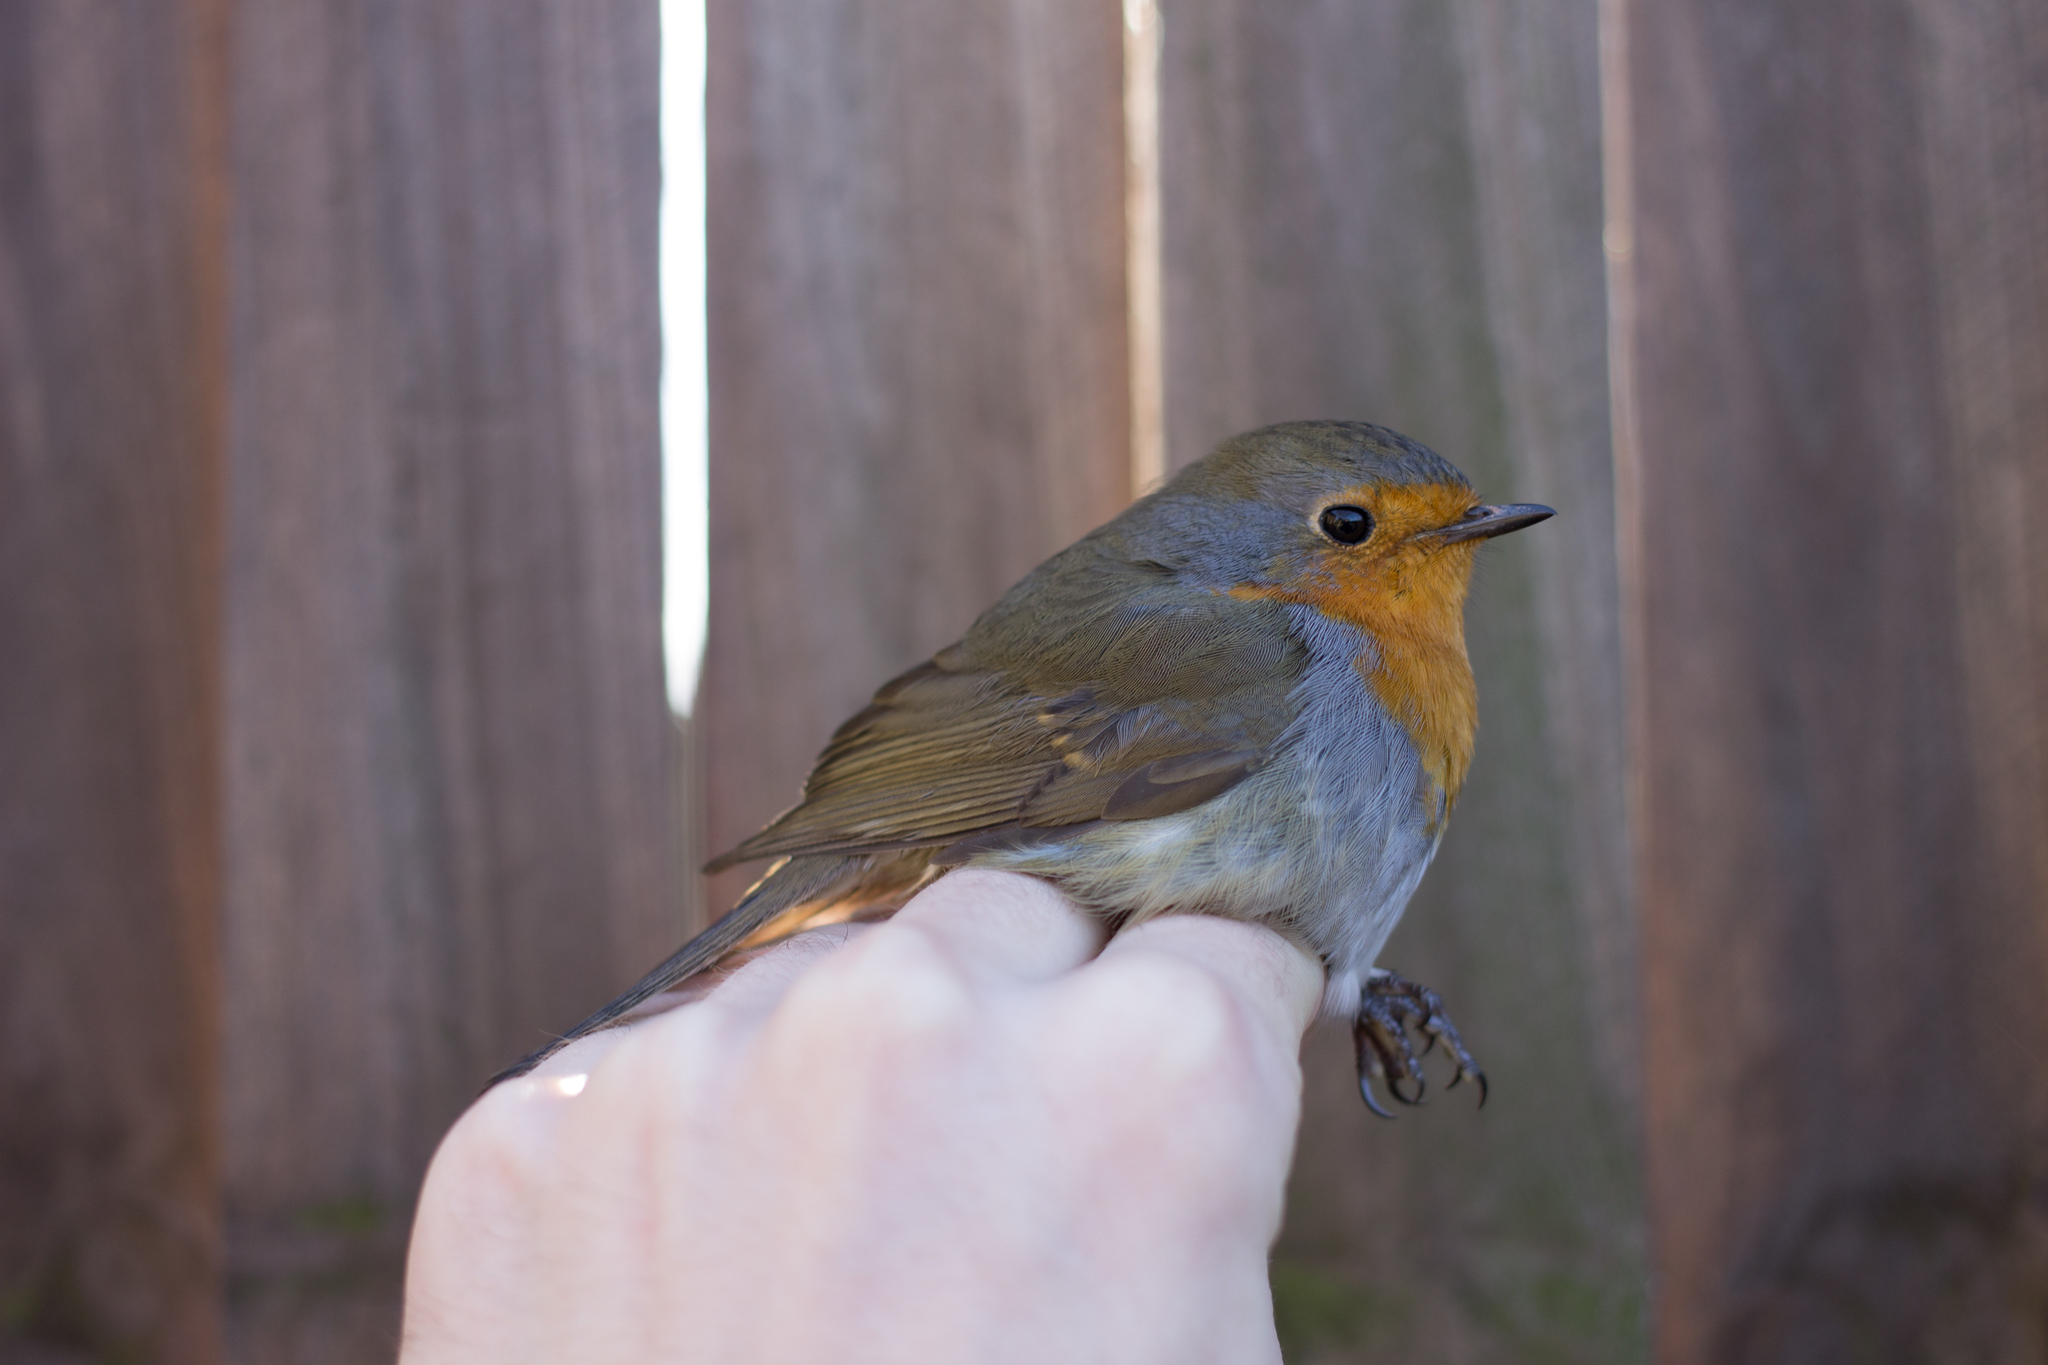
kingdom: Animalia
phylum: Chordata
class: Aves
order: Passeriformes
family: Muscicapidae
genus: Erithacus
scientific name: Erithacus rubecula
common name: European robin
